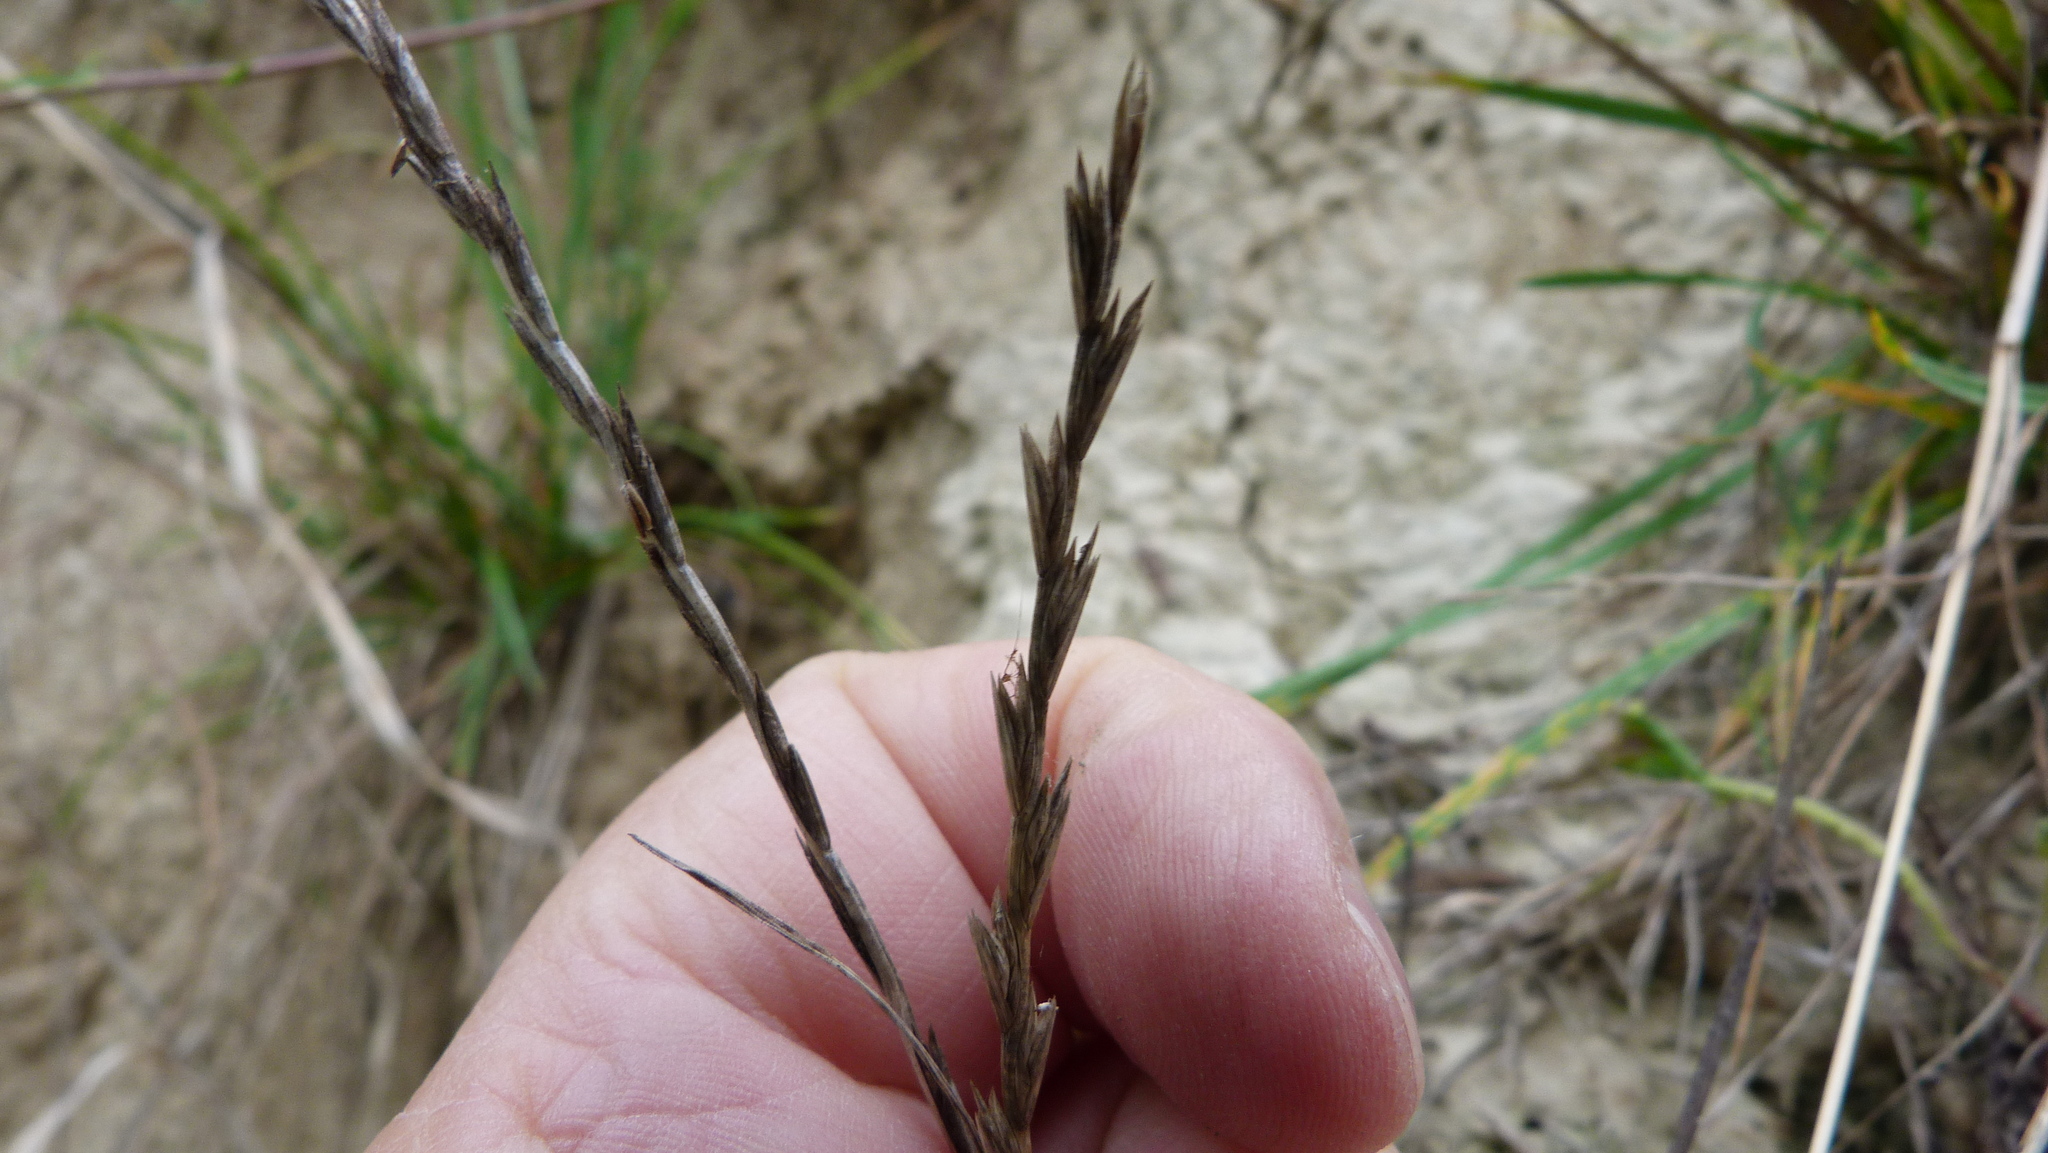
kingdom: Plantae
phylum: Tracheophyta
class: Liliopsida
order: Poales
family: Poaceae
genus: Lolium
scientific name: Lolium perenne
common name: Perennial ryegrass
